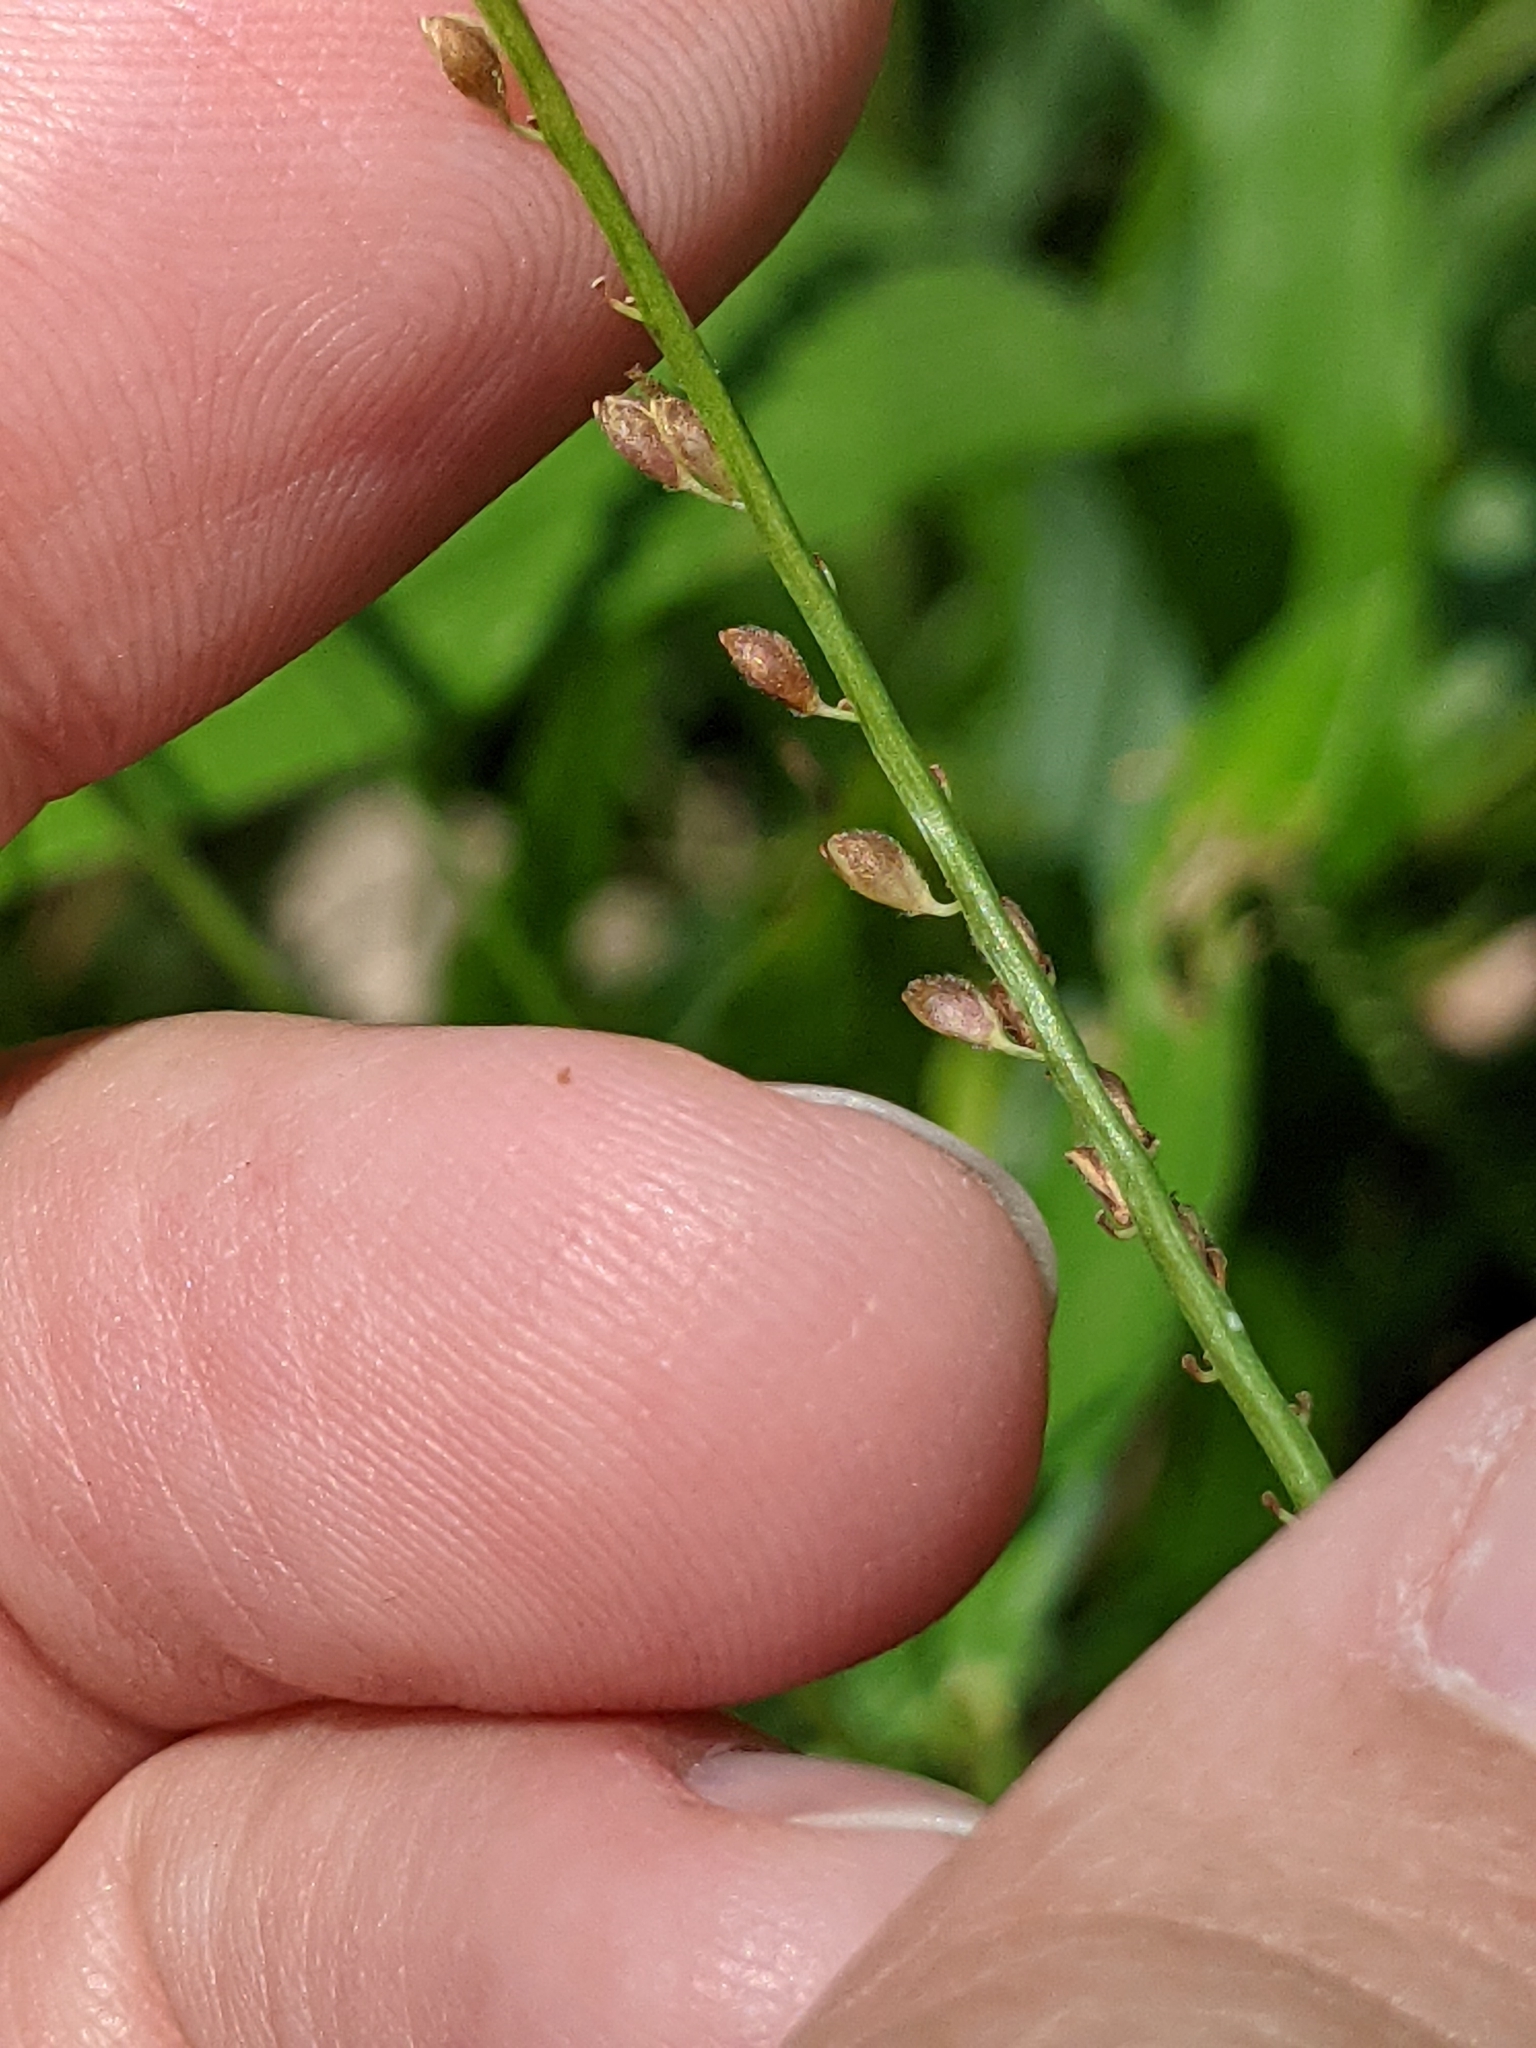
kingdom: Plantae
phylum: Tracheophyta
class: Liliopsida
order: Poales
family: Poaceae
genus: Paspalum
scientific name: Paspalum langei
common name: Rusty-seed paspalum
